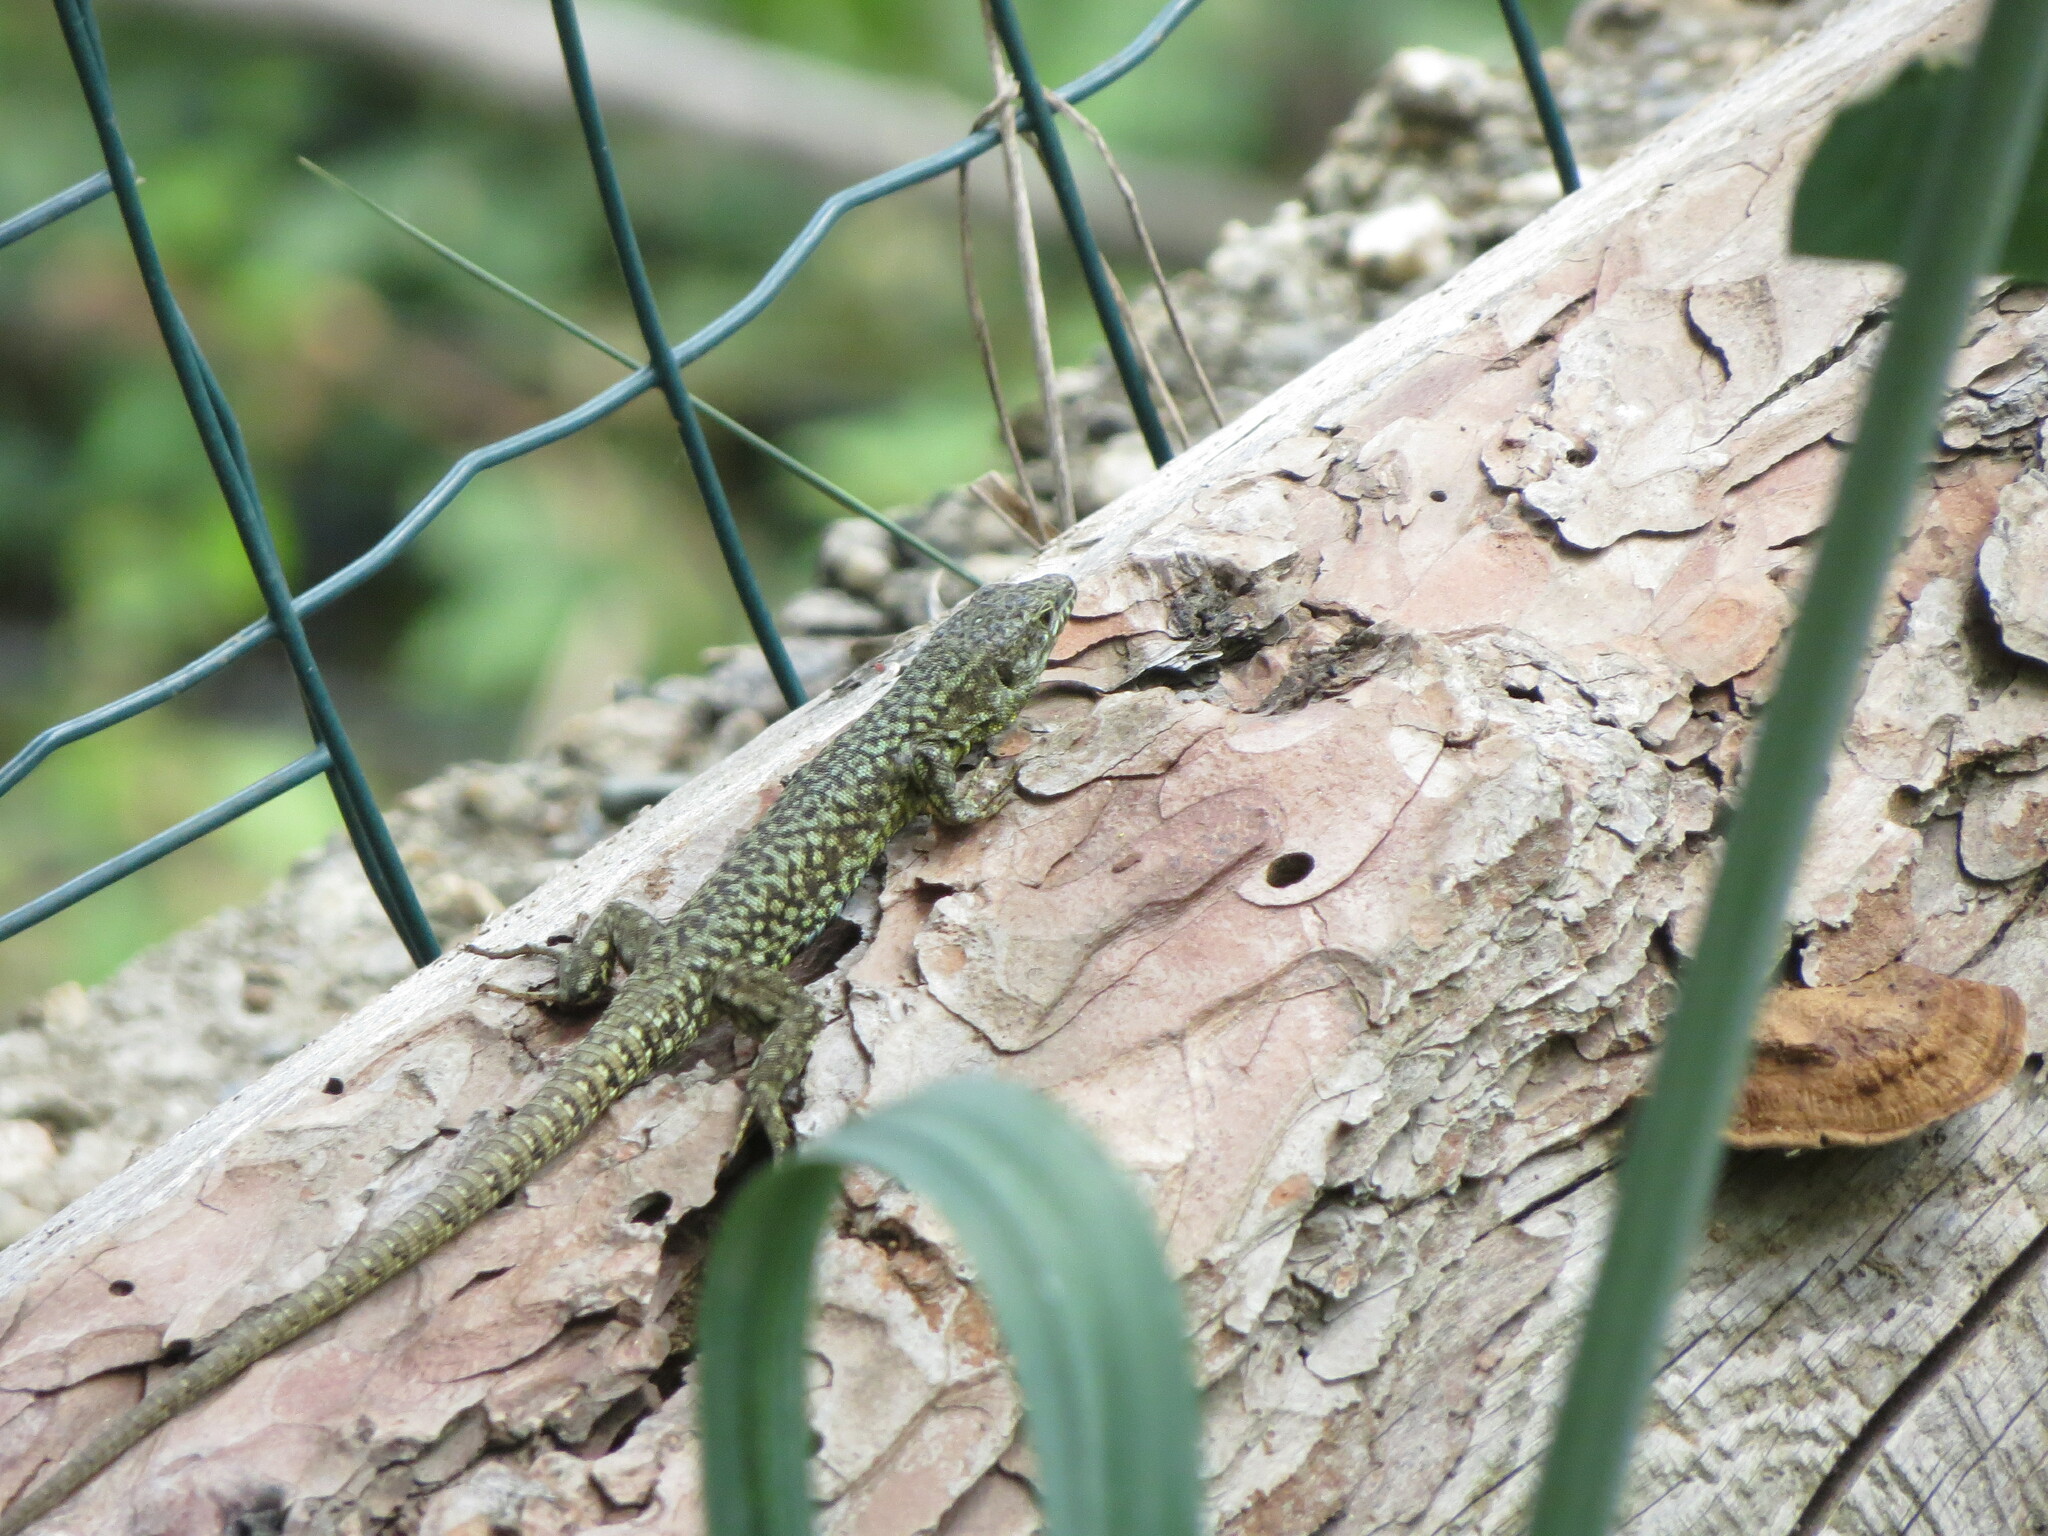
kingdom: Animalia
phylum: Chordata
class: Squamata
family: Lacertidae
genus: Podarcis
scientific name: Podarcis muralis
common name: Common wall lizard
